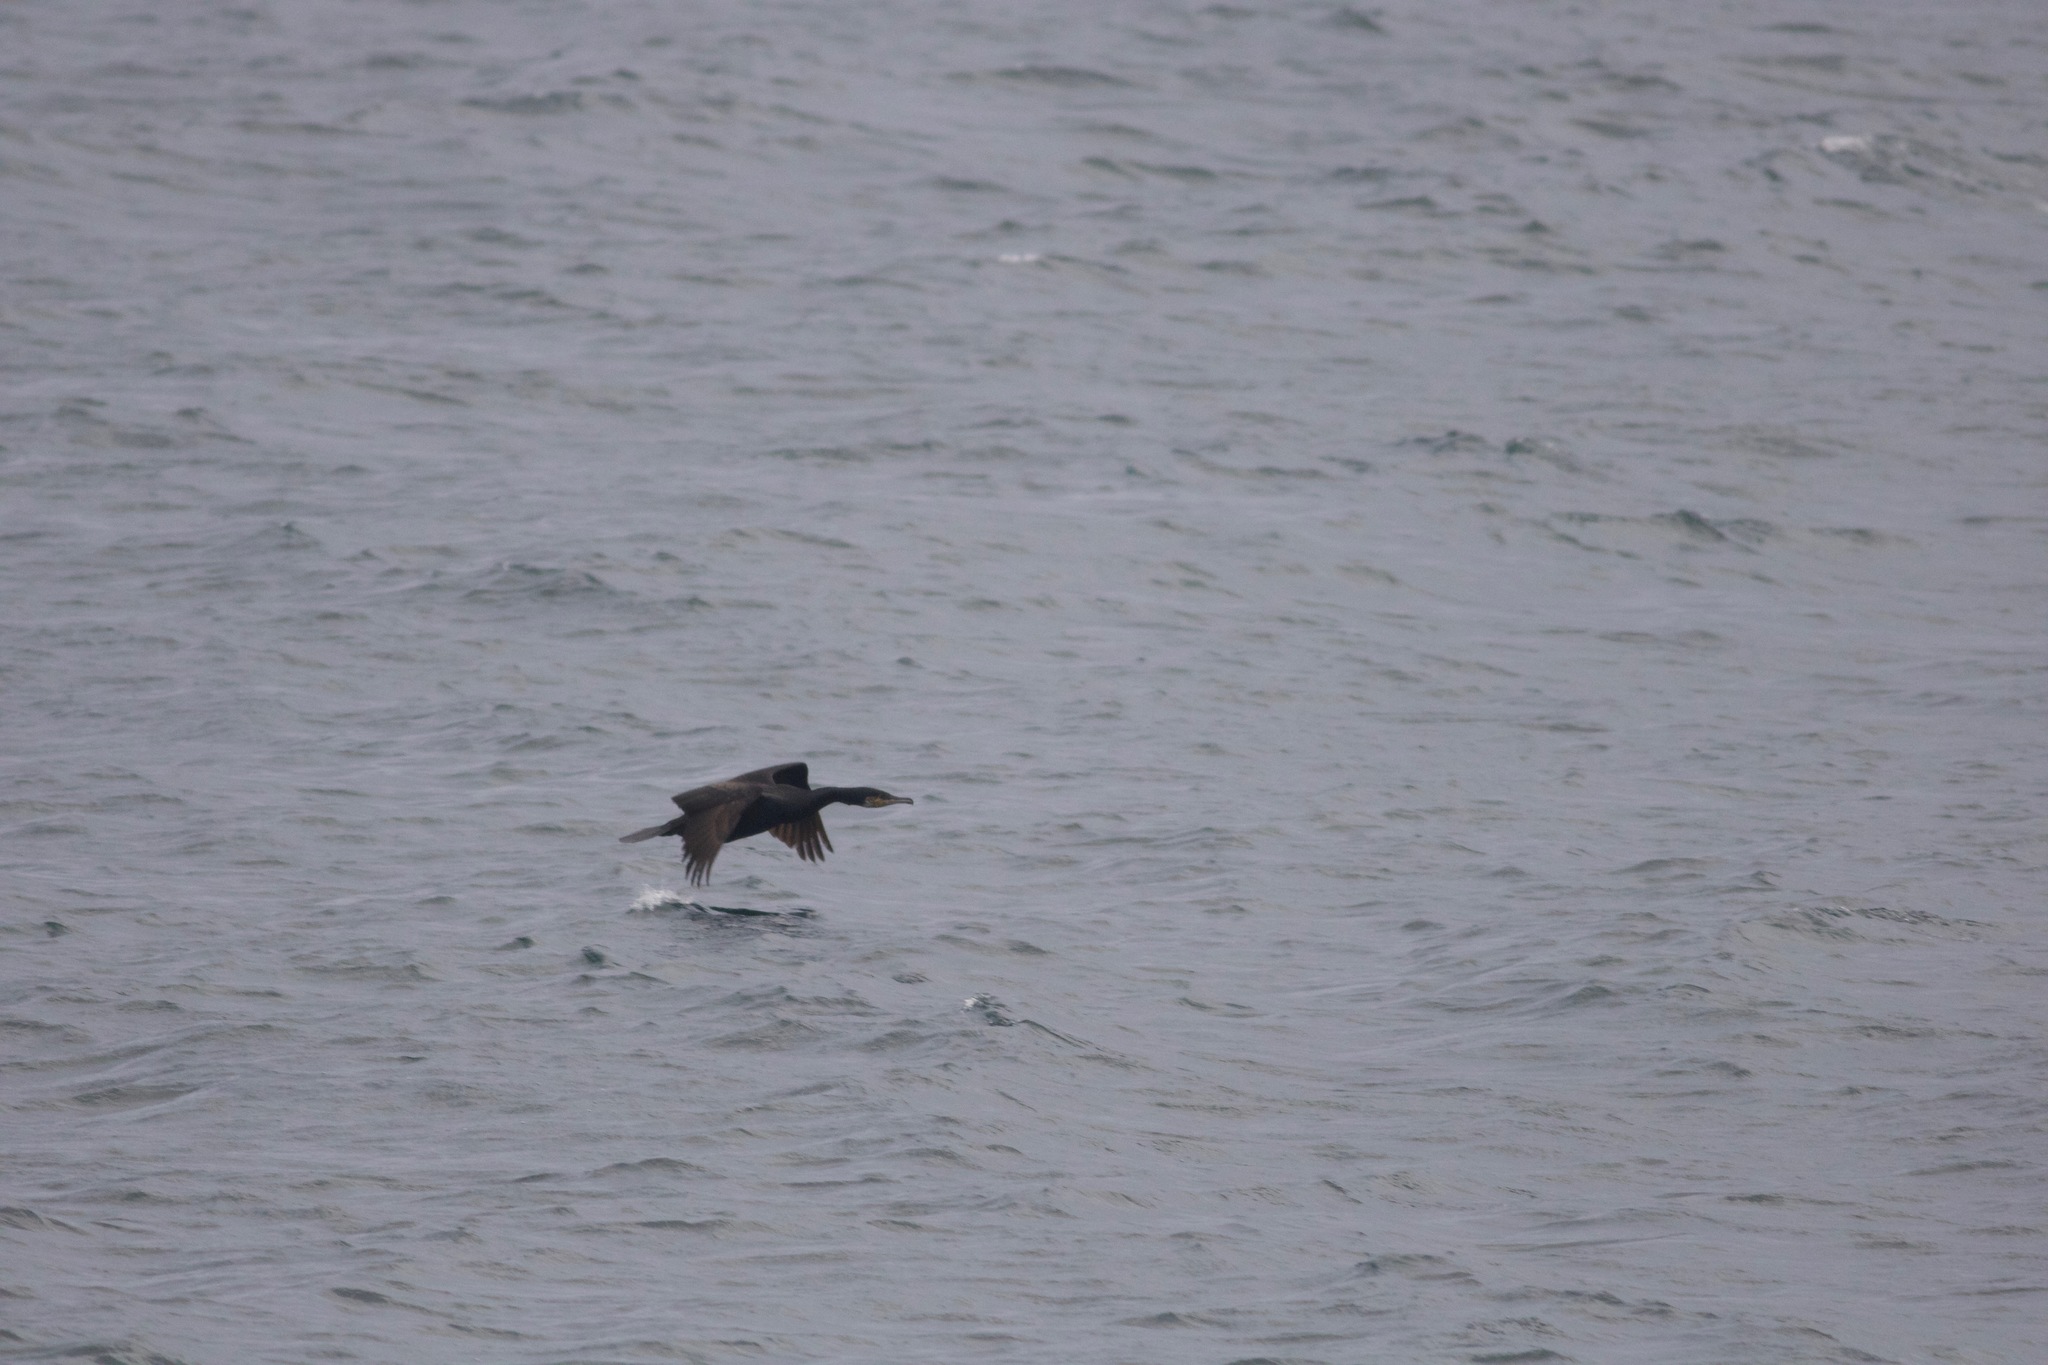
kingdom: Animalia
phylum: Chordata
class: Aves
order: Suliformes
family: Phalacrocoracidae
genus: Phalacrocorax
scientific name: Phalacrocorax carbo
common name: Great cormorant
